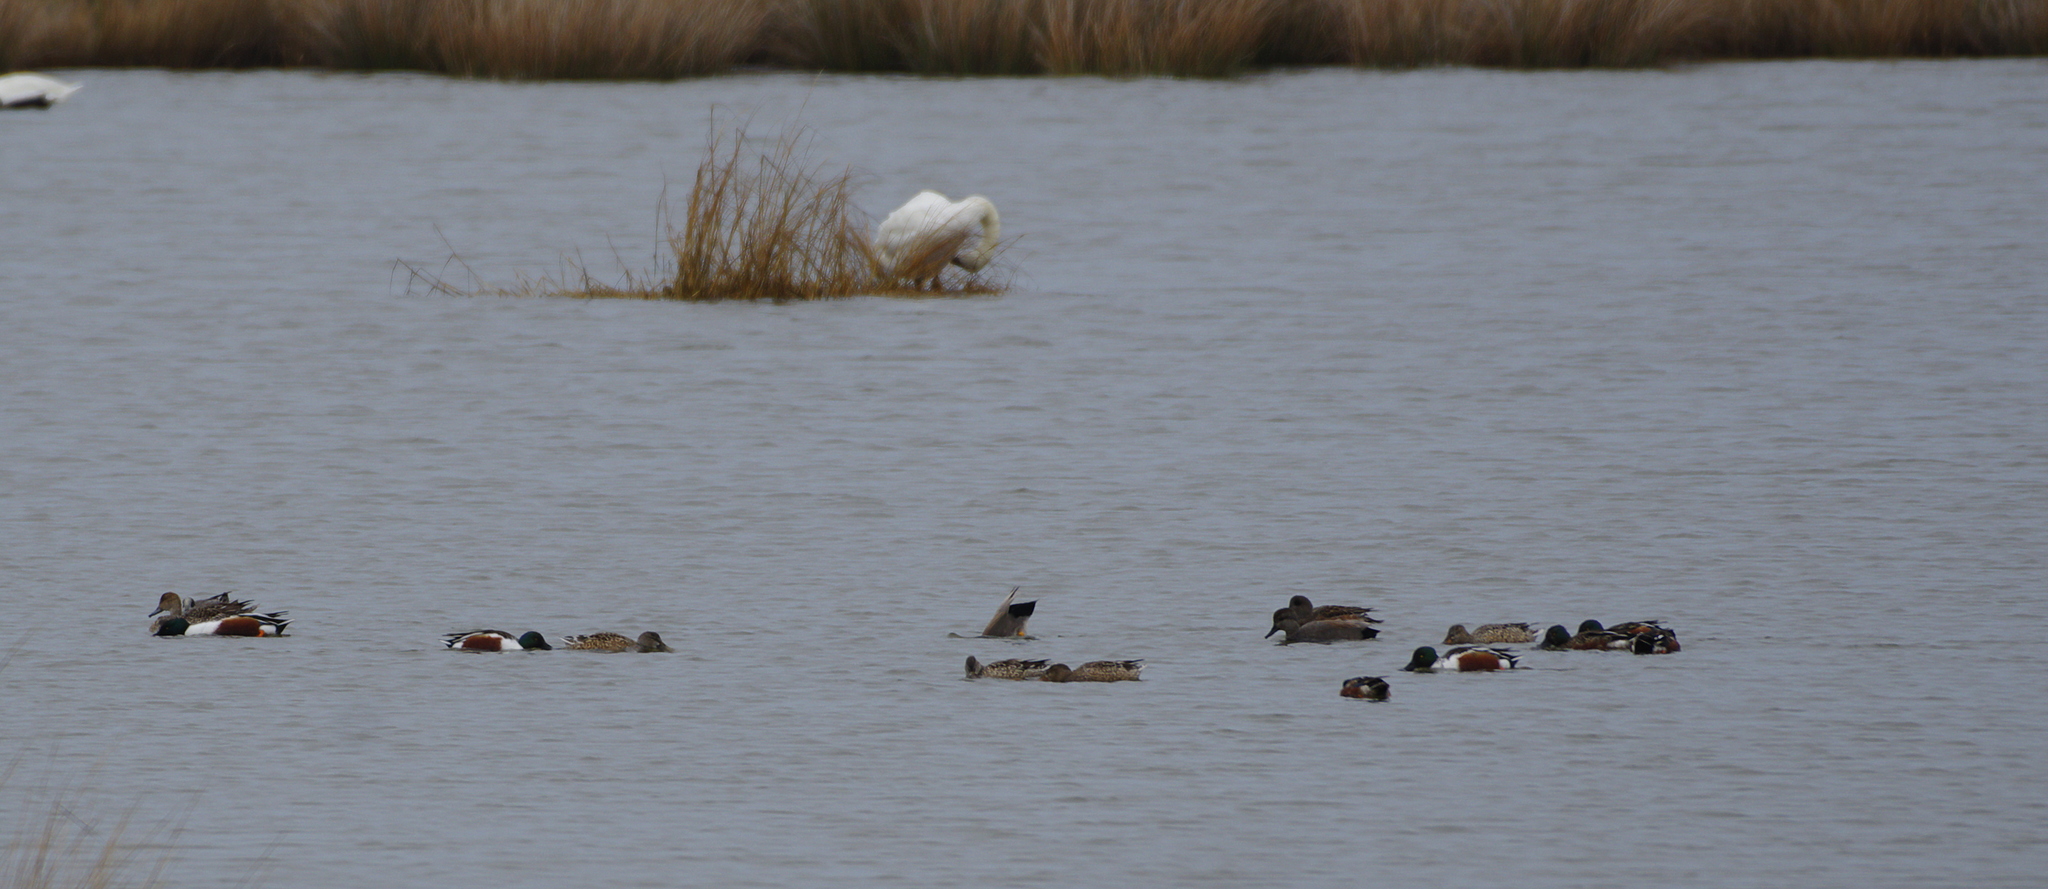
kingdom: Animalia
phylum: Chordata
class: Aves
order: Anseriformes
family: Anatidae
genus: Spatula
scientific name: Spatula clypeata
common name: Northern shoveler
